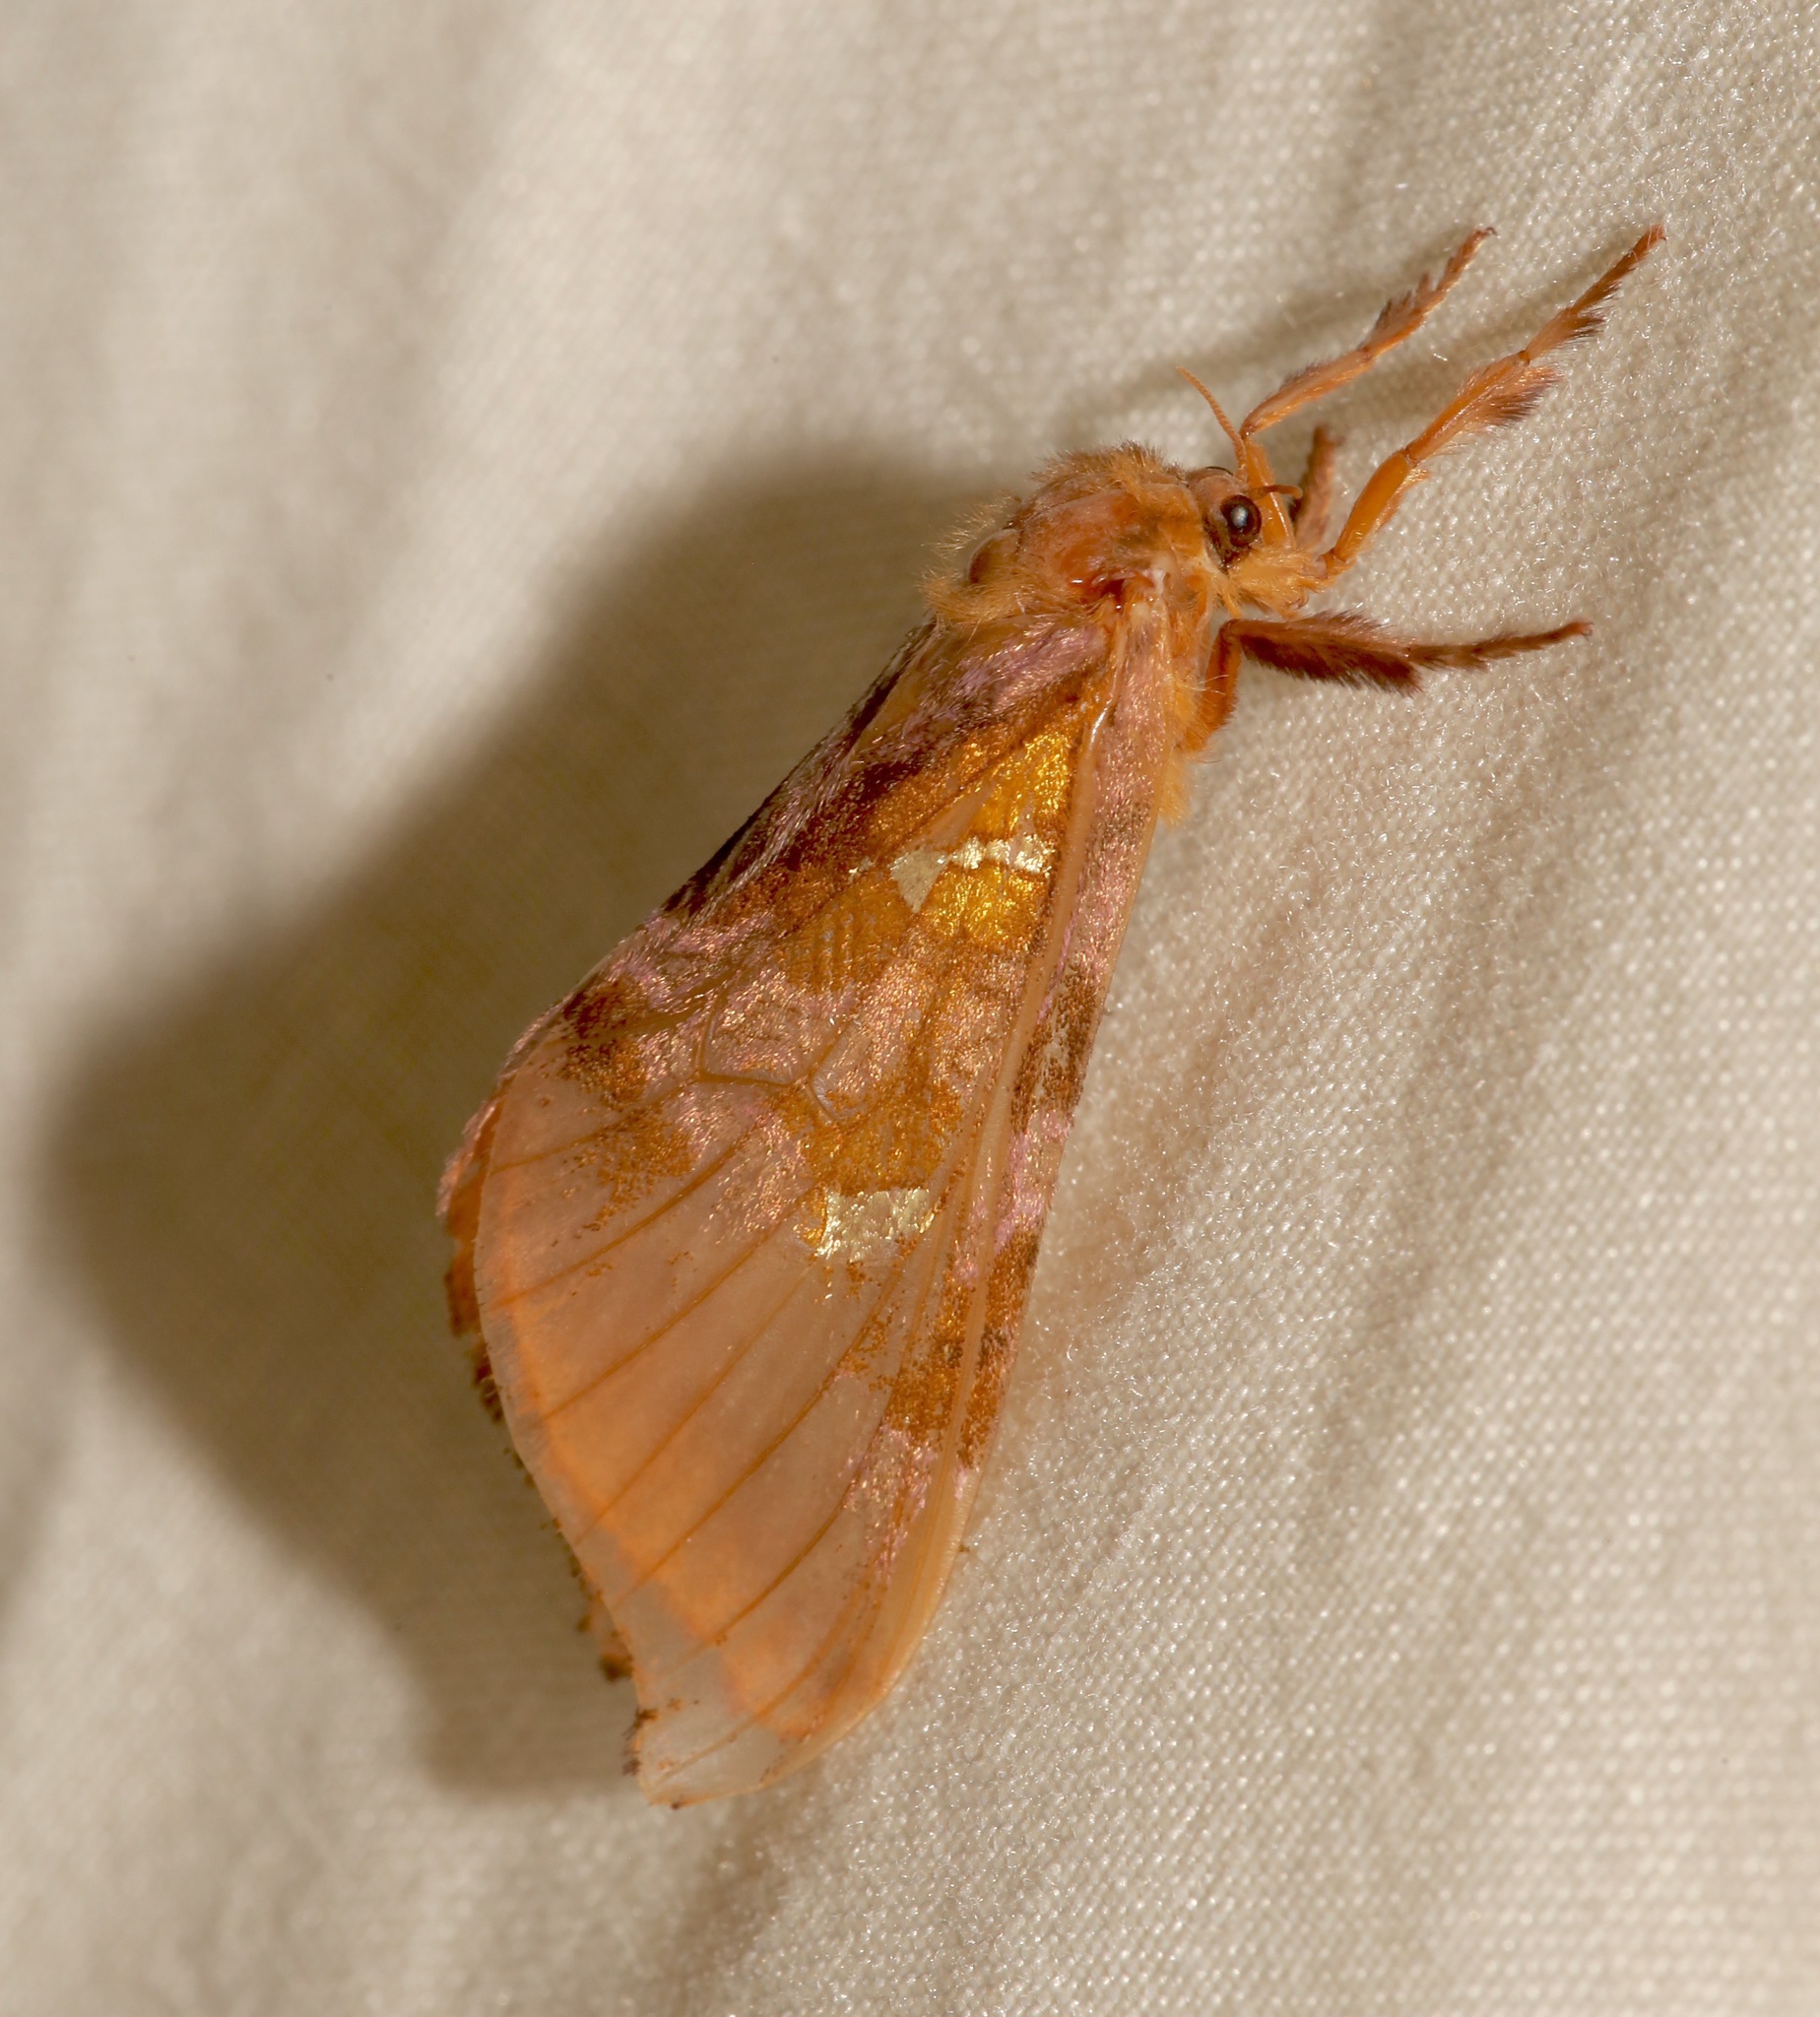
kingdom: Animalia
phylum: Arthropoda
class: Insecta
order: Lepidoptera
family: Hepialidae
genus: Sthenopis
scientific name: Sthenopis pretiosus
